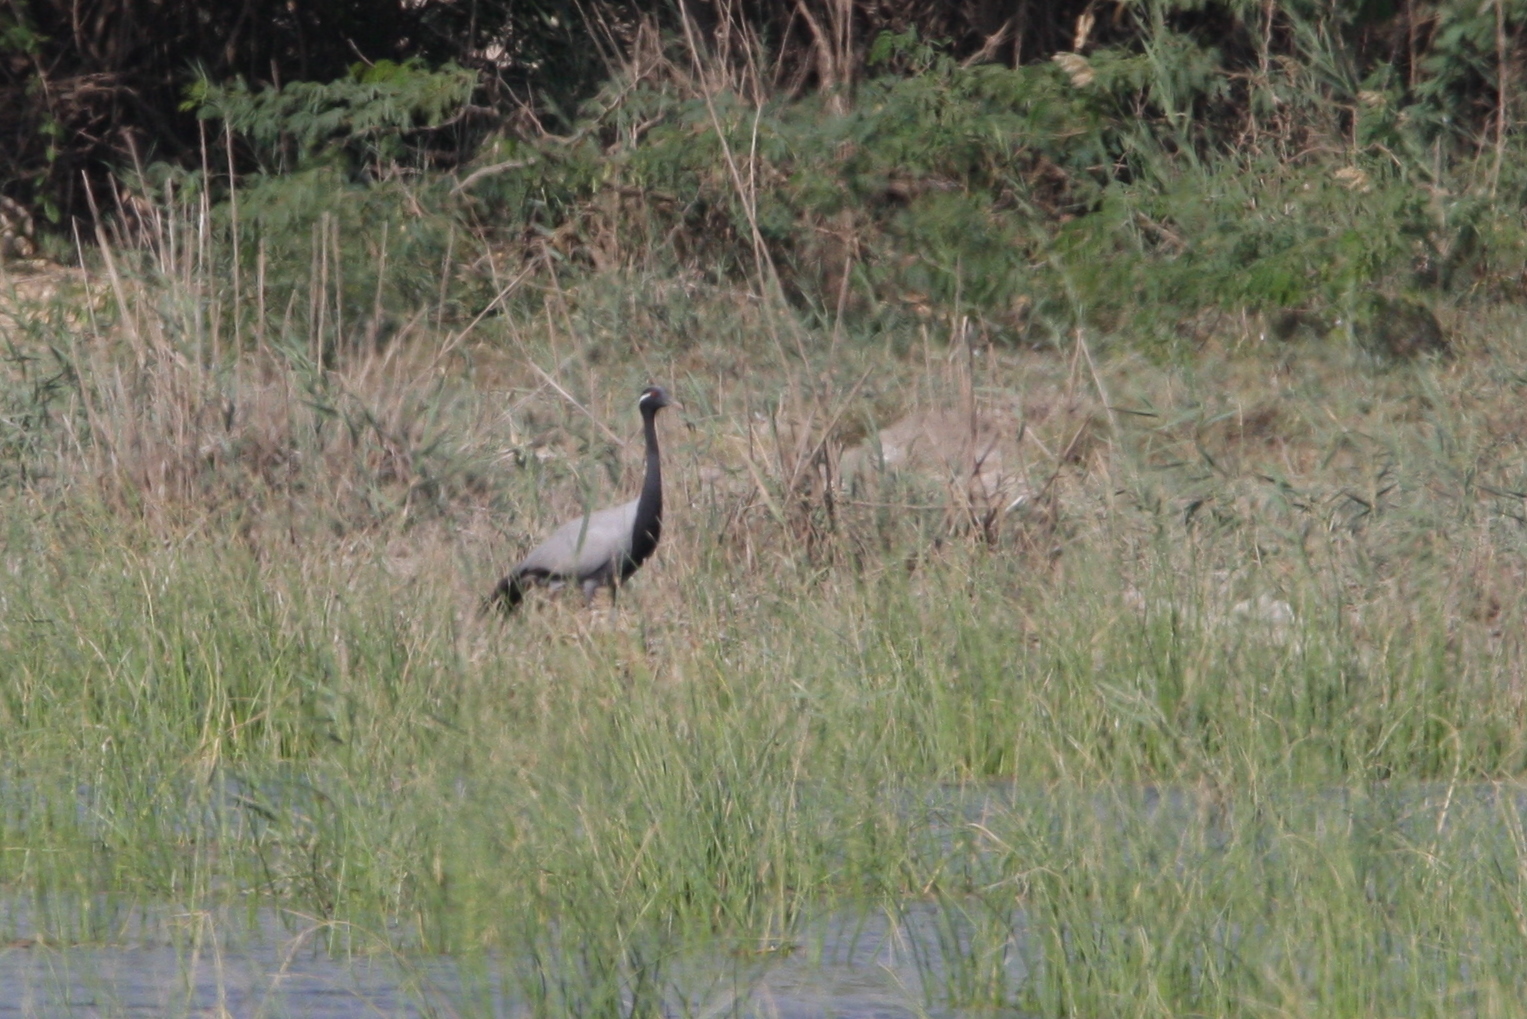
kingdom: Animalia
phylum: Chordata
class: Aves
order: Gruiformes
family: Gruidae
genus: Anthropoides
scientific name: Anthropoides virgo
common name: Demoiselle crane
